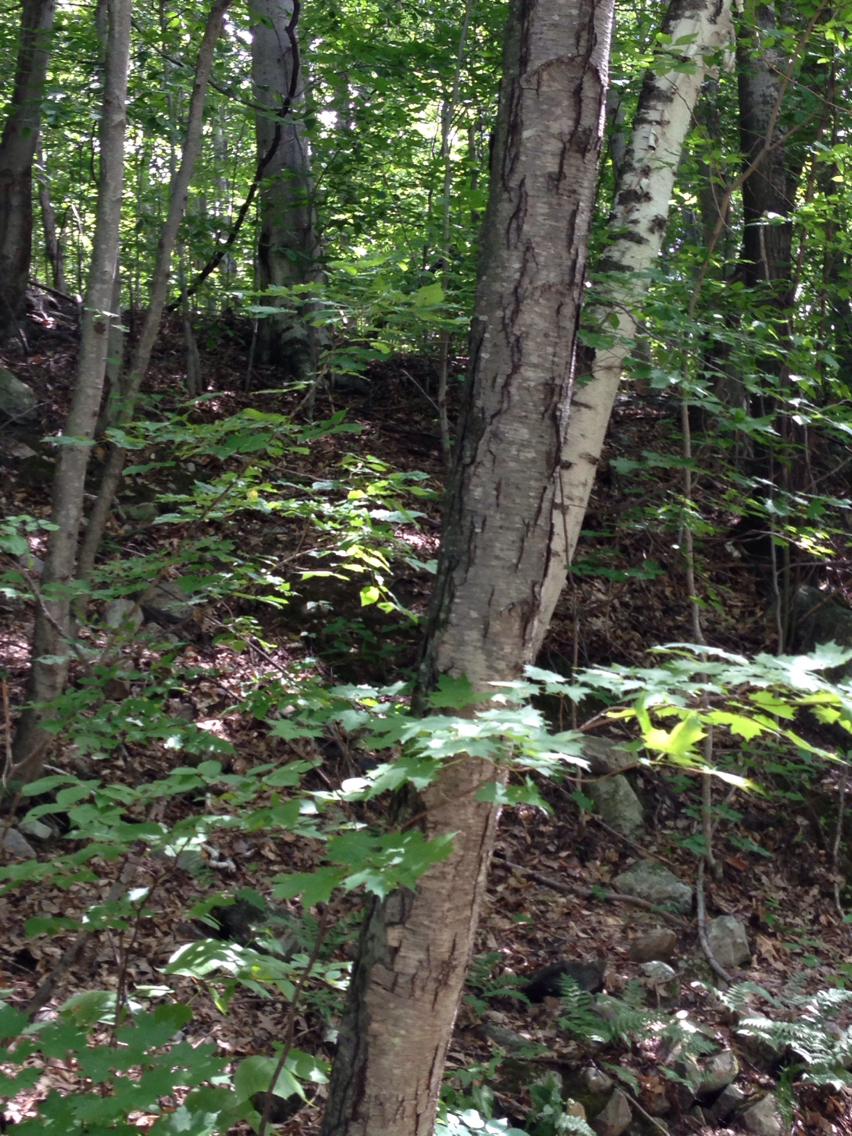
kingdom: Plantae
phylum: Tracheophyta
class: Magnoliopsida
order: Fagales
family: Betulaceae
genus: Betula
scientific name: Betula lenta
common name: Black birch
